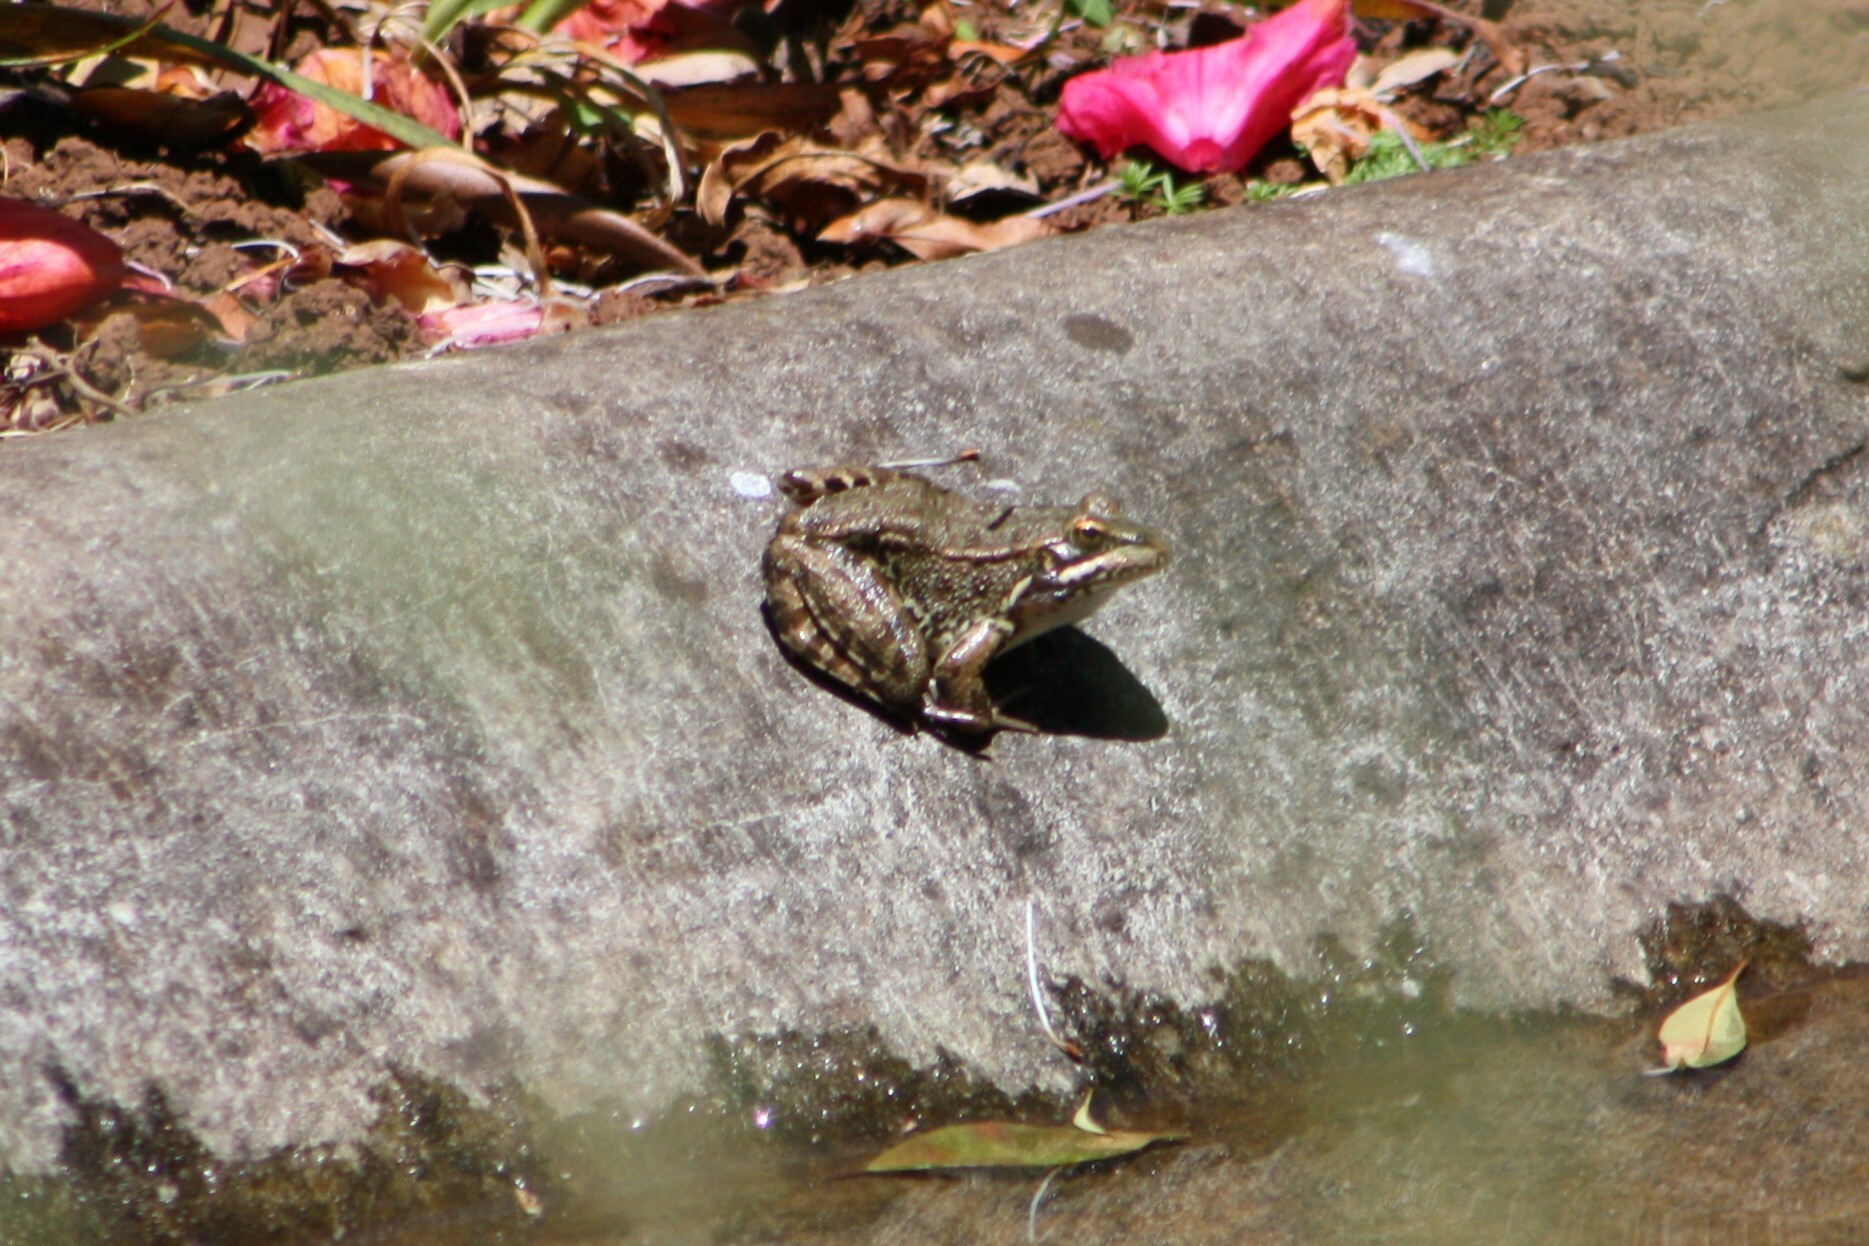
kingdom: Animalia
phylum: Chordata
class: Amphibia
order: Anura
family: Ranidae
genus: Pelophylax
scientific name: Pelophylax perezi
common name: Perez's frog
